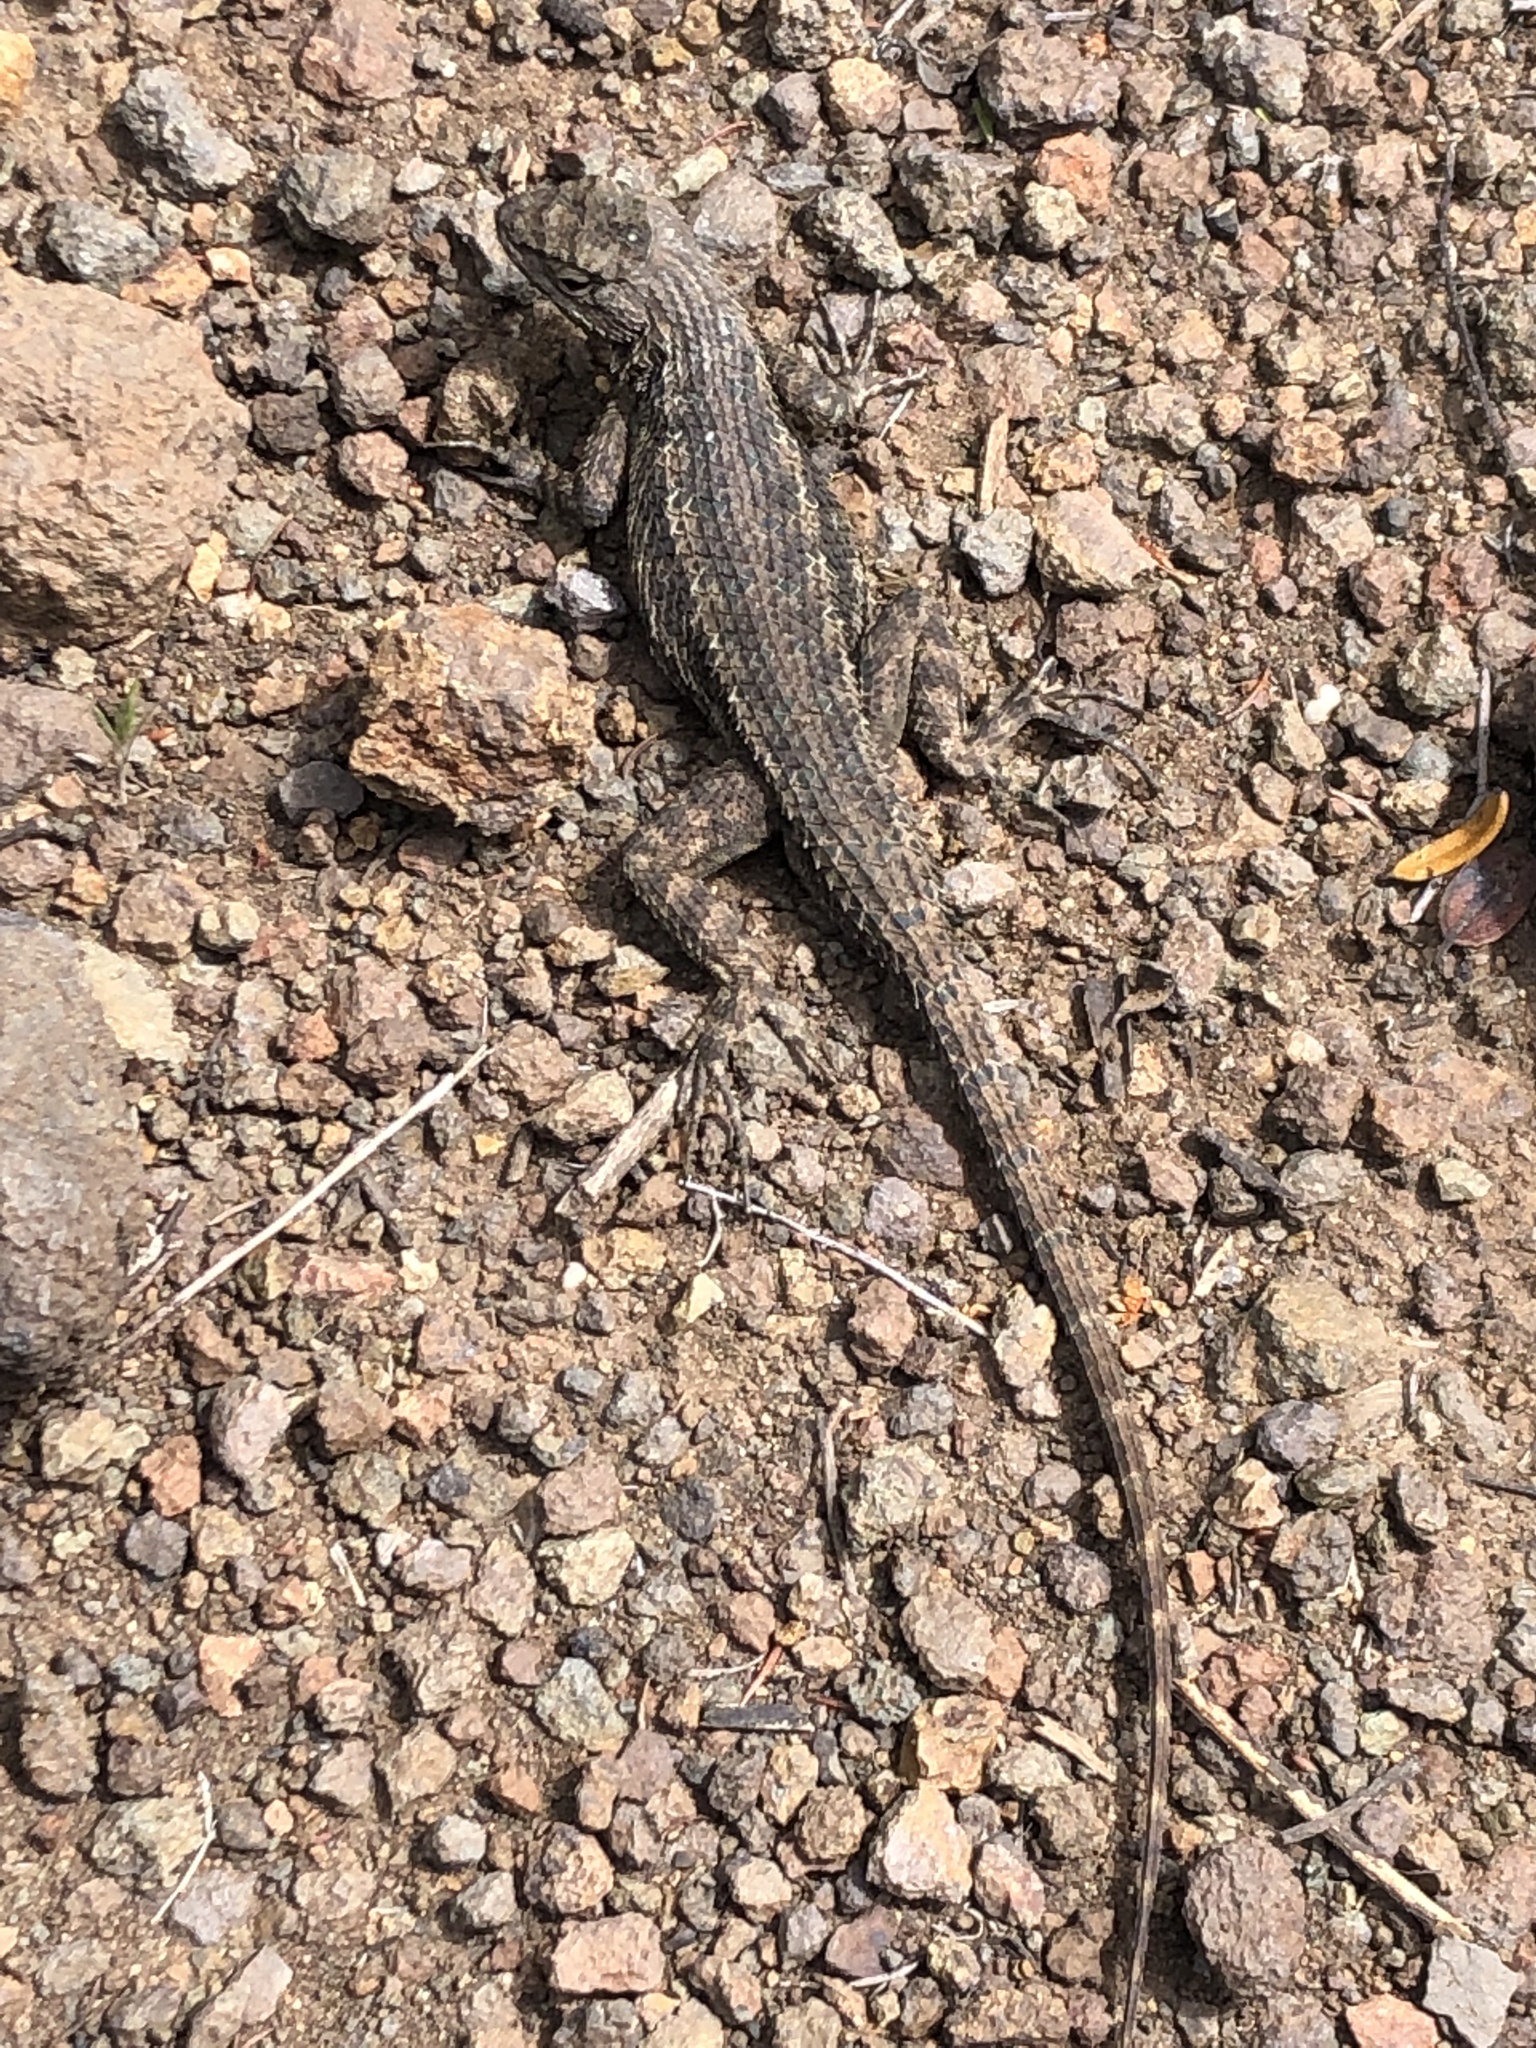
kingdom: Animalia
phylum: Chordata
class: Squamata
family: Phrynosomatidae
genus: Sceloporus
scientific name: Sceloporus occidentalis
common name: Western fence lizard
